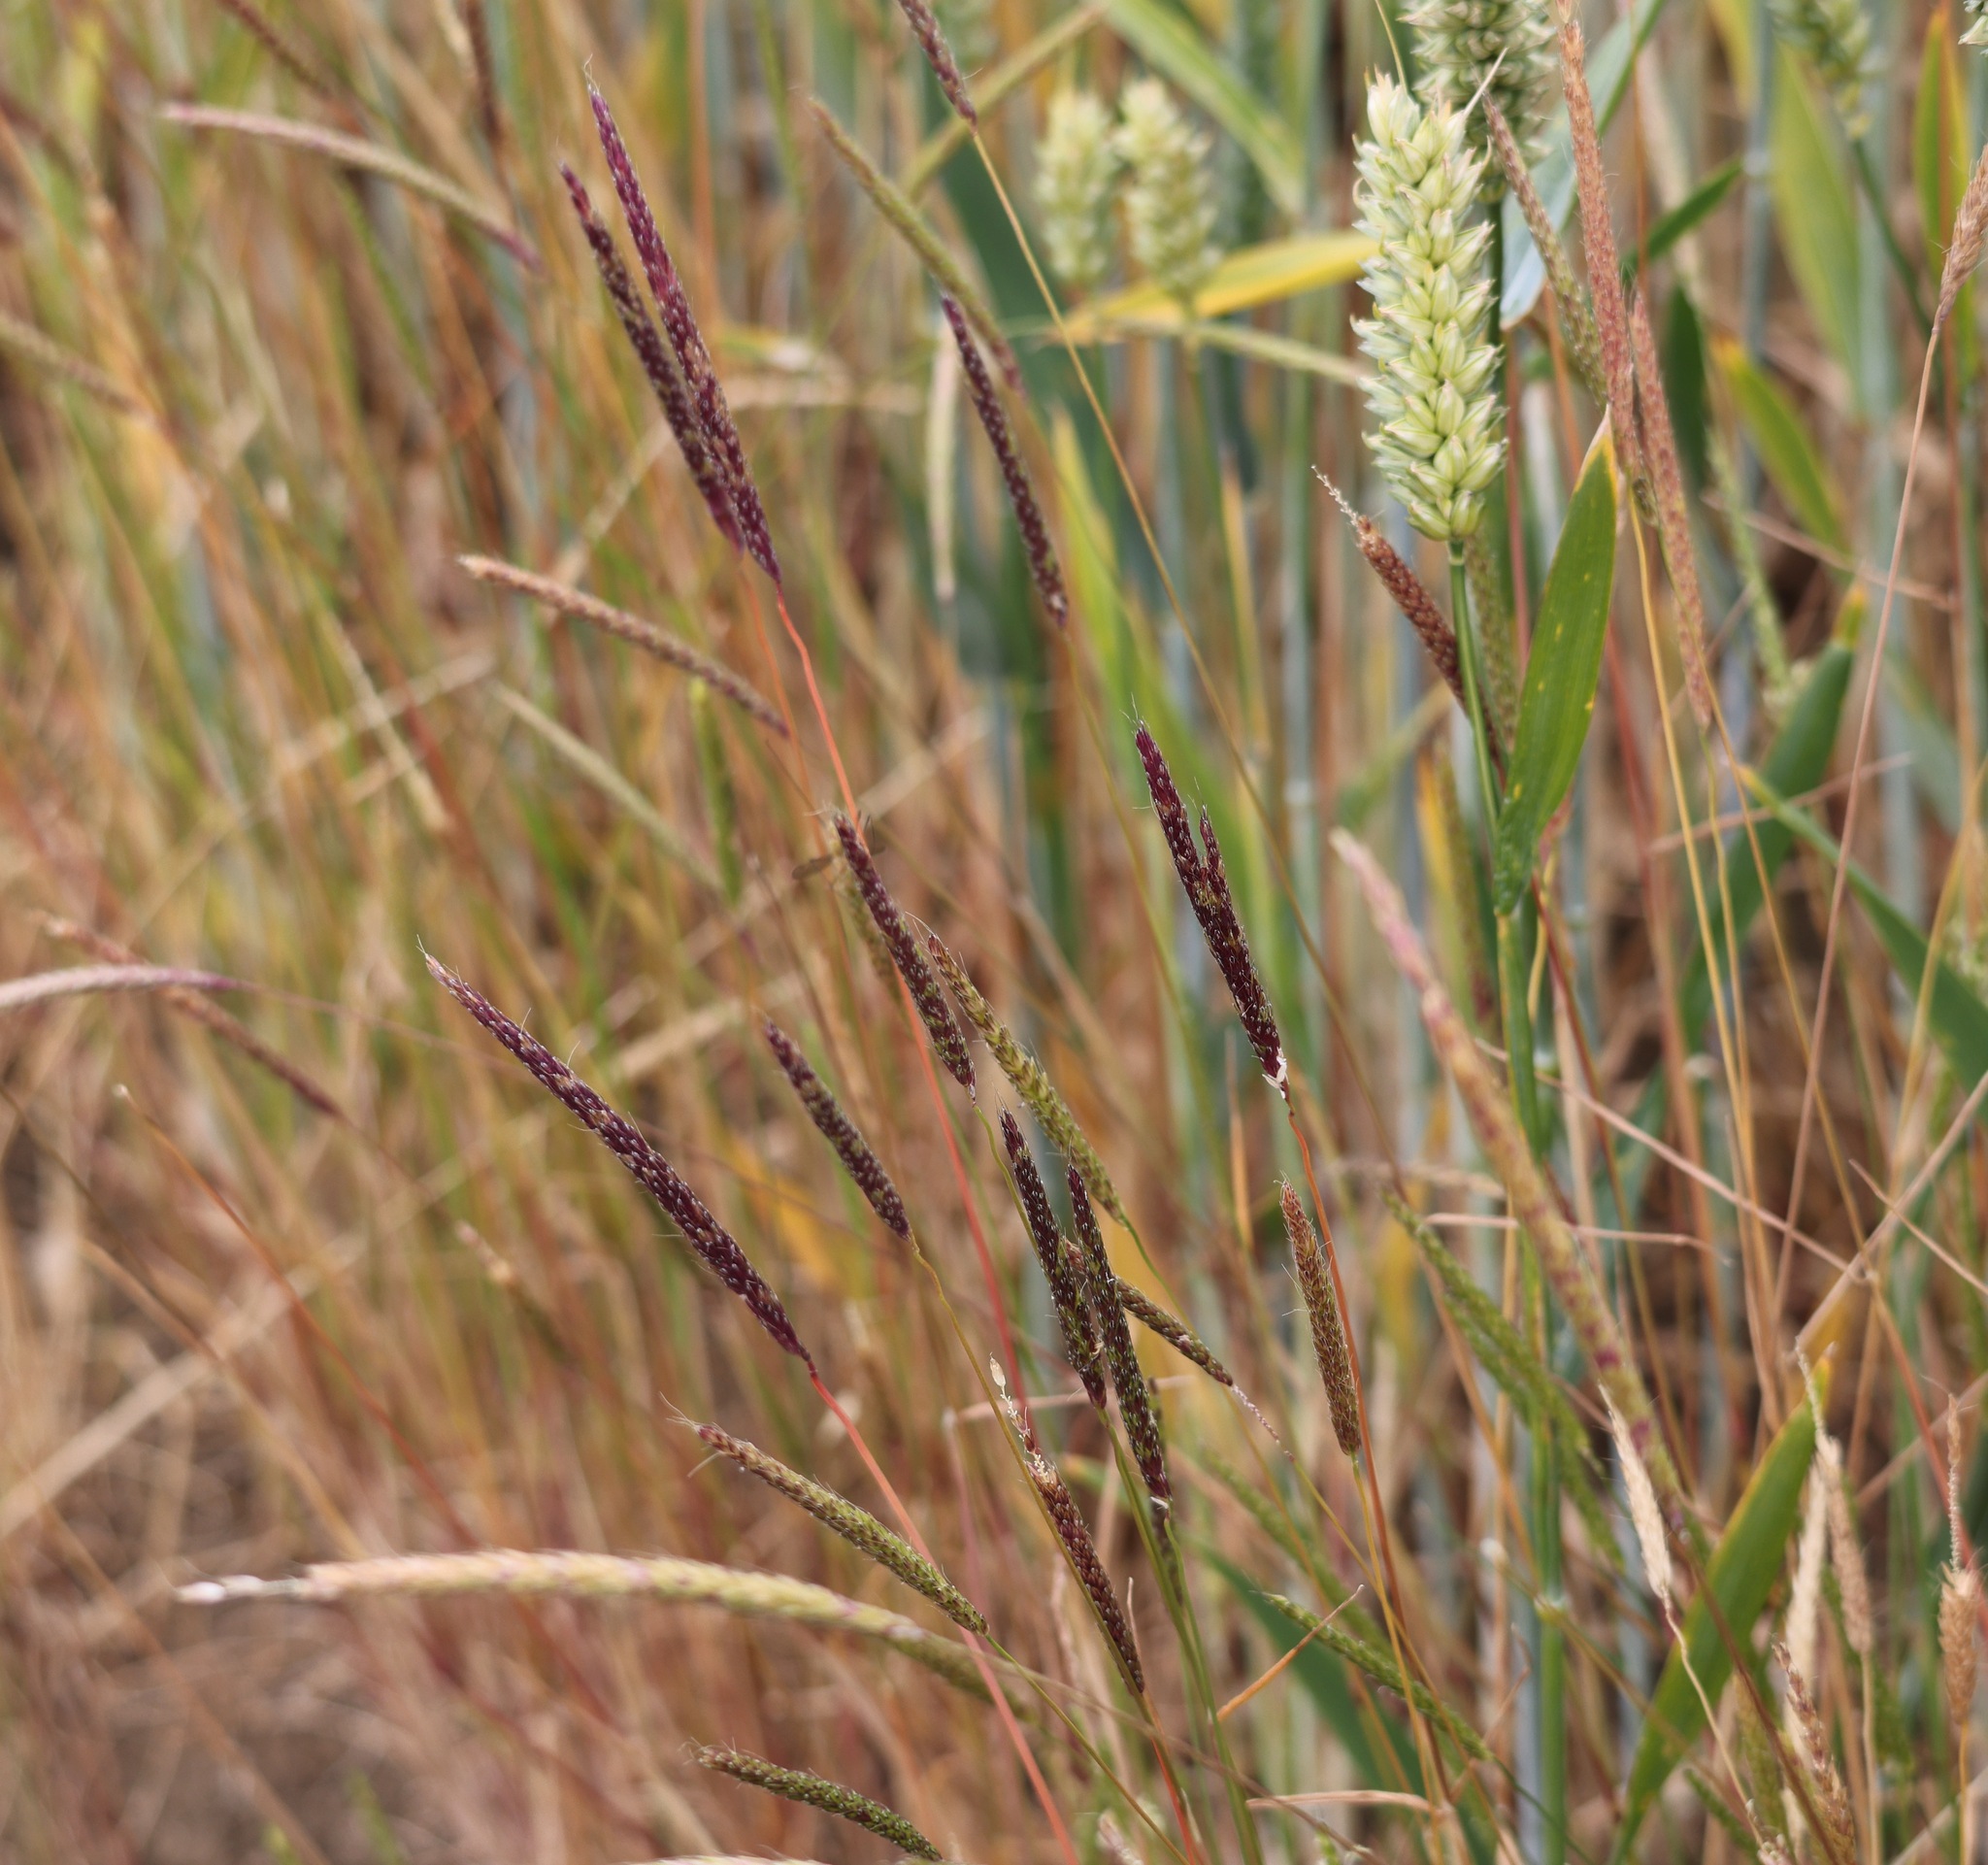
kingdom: Plantae
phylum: Tracheophyta
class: Liliopsida
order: Poales
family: Poaceae
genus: Alopecurus
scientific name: Alopecurus myosuroides
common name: Black-grass
